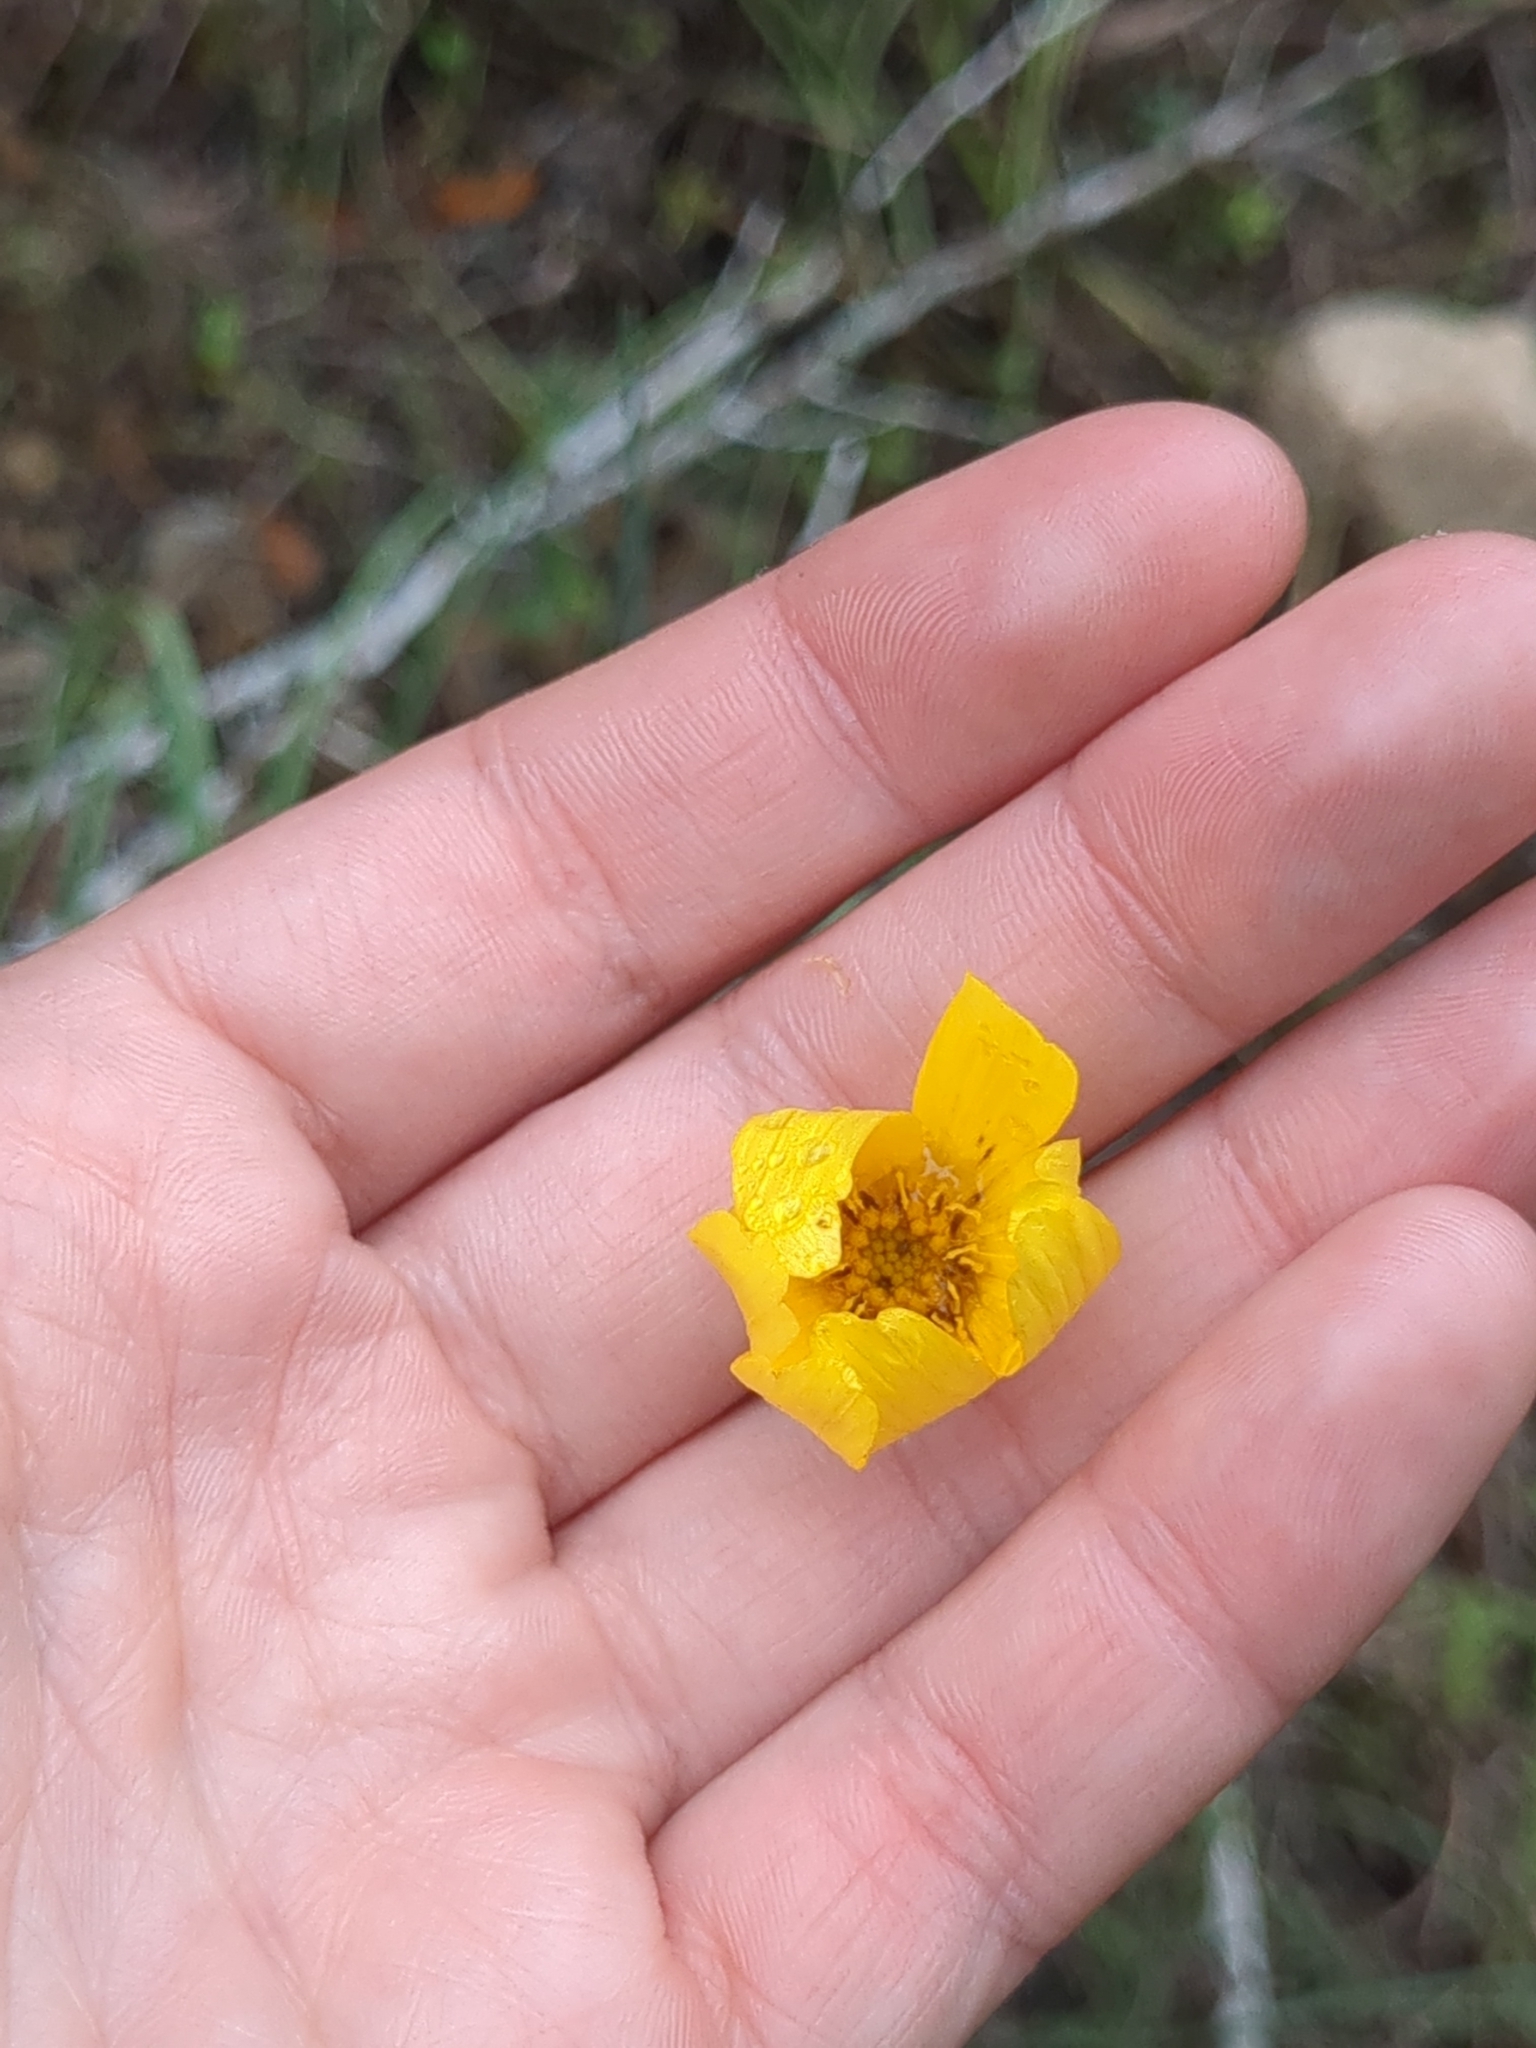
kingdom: Plantae
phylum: Tracheophyta
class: Magnoliopsida
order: Asterales
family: Asteraceae
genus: Thelesperma
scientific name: Thelesperma simplicifolium
